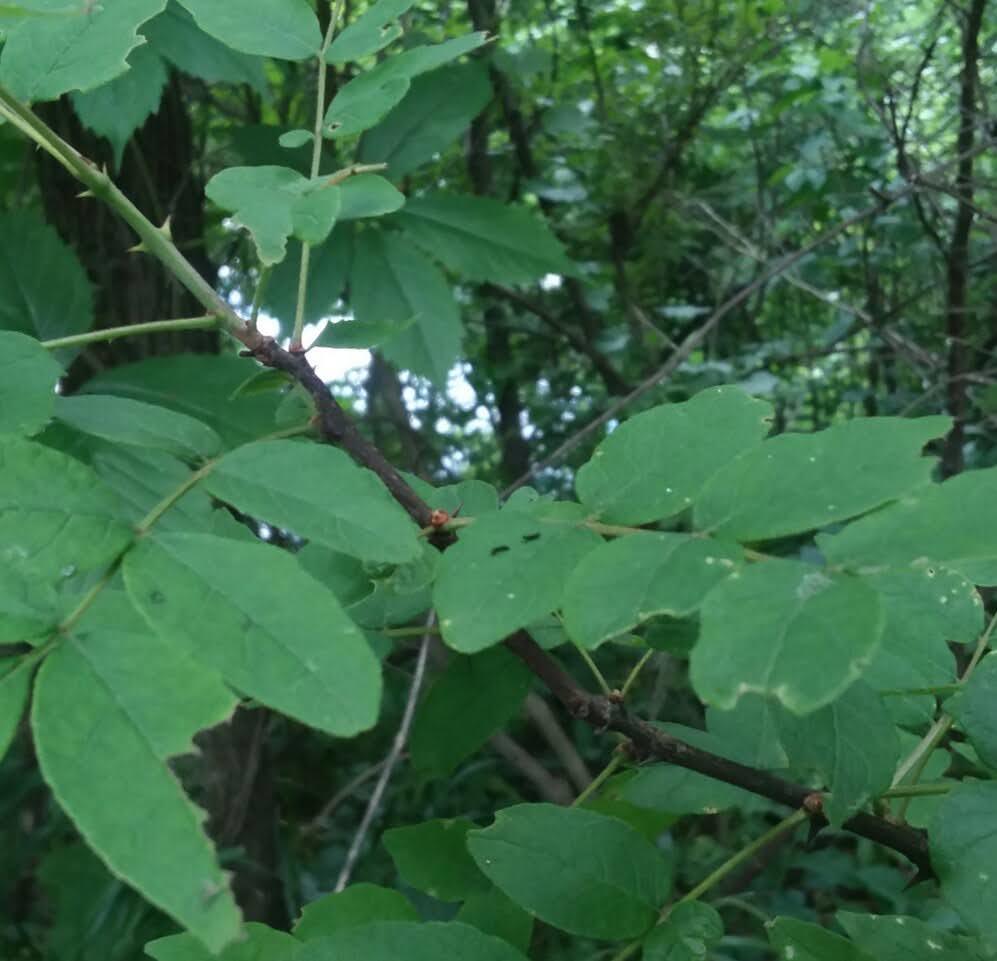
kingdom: Plantae
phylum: Tracheophyta
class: Magnoliopsida
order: Sapindales
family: Rutaceae
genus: Zanthoxylum
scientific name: Zanthoxylum americanum
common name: Northern prickly-ash
